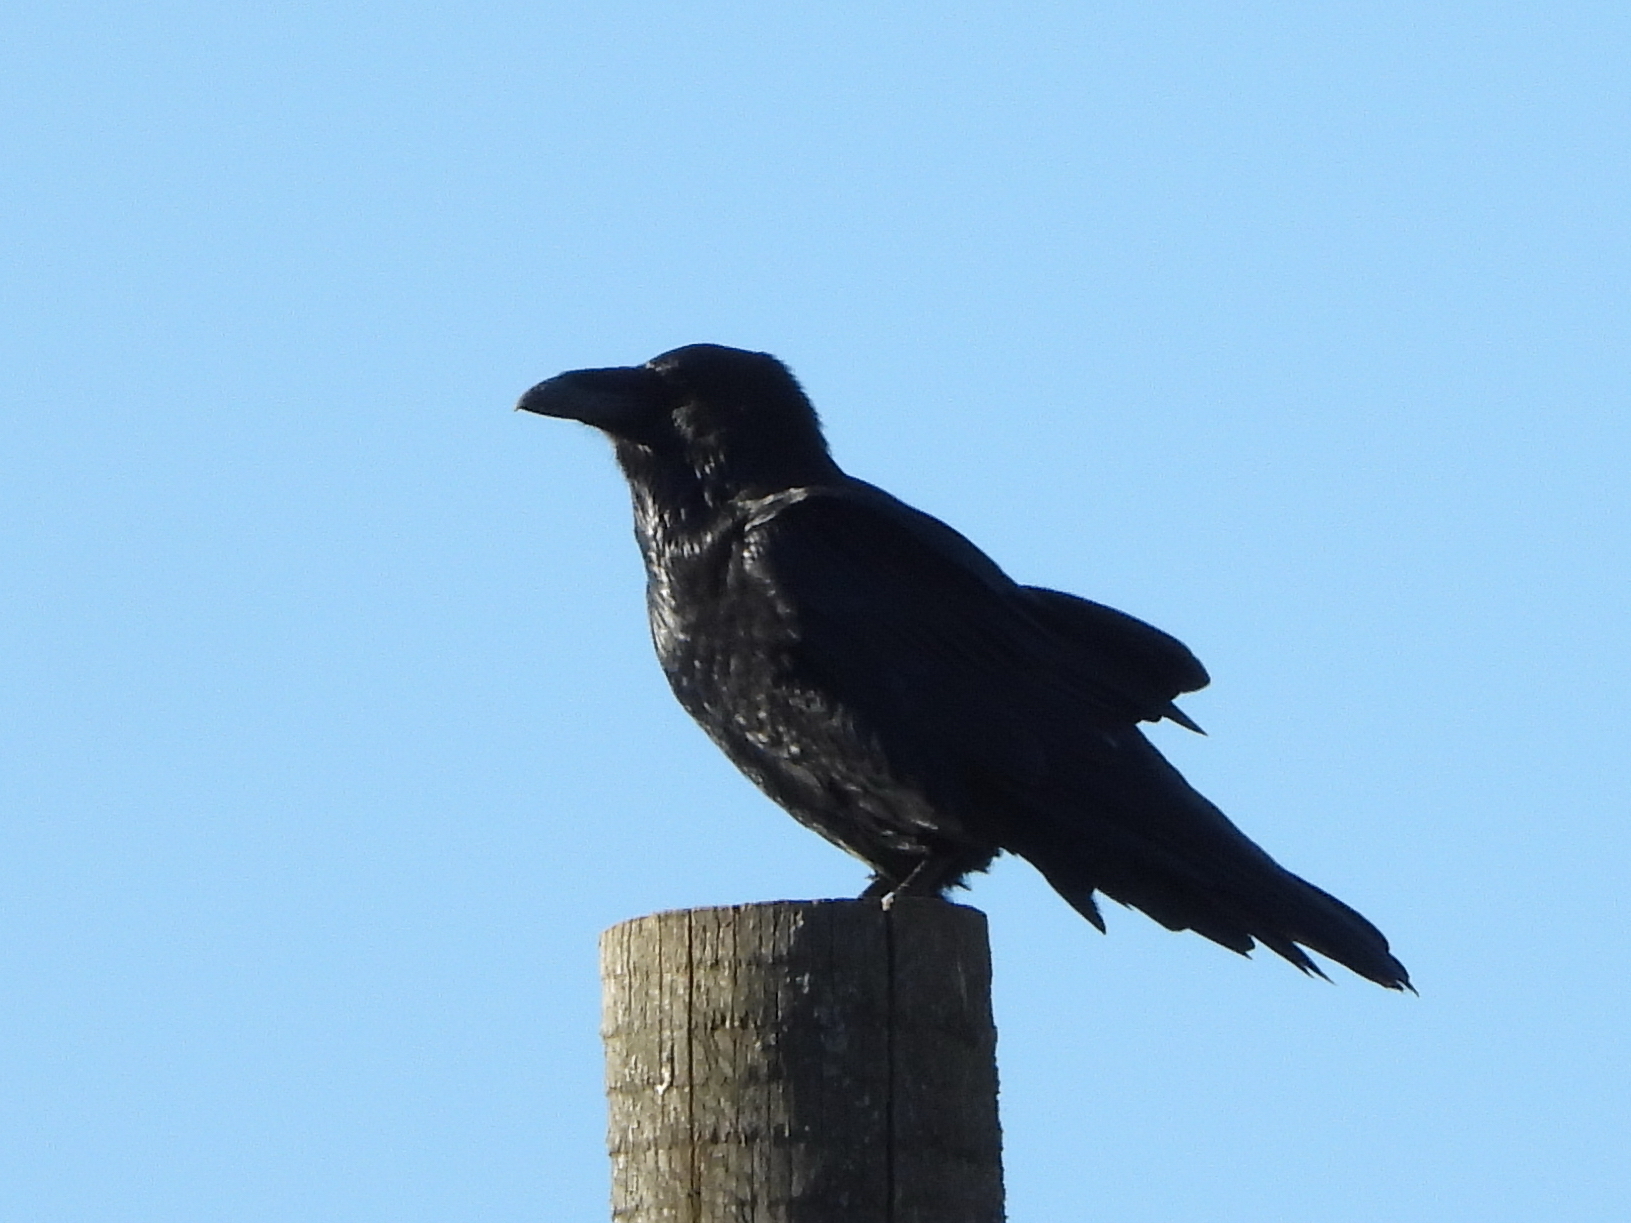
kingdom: Animalia
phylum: Chordata
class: Aves
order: Passeriformes
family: Corvidae
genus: Corvus
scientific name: Corvus corax
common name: Common raven
